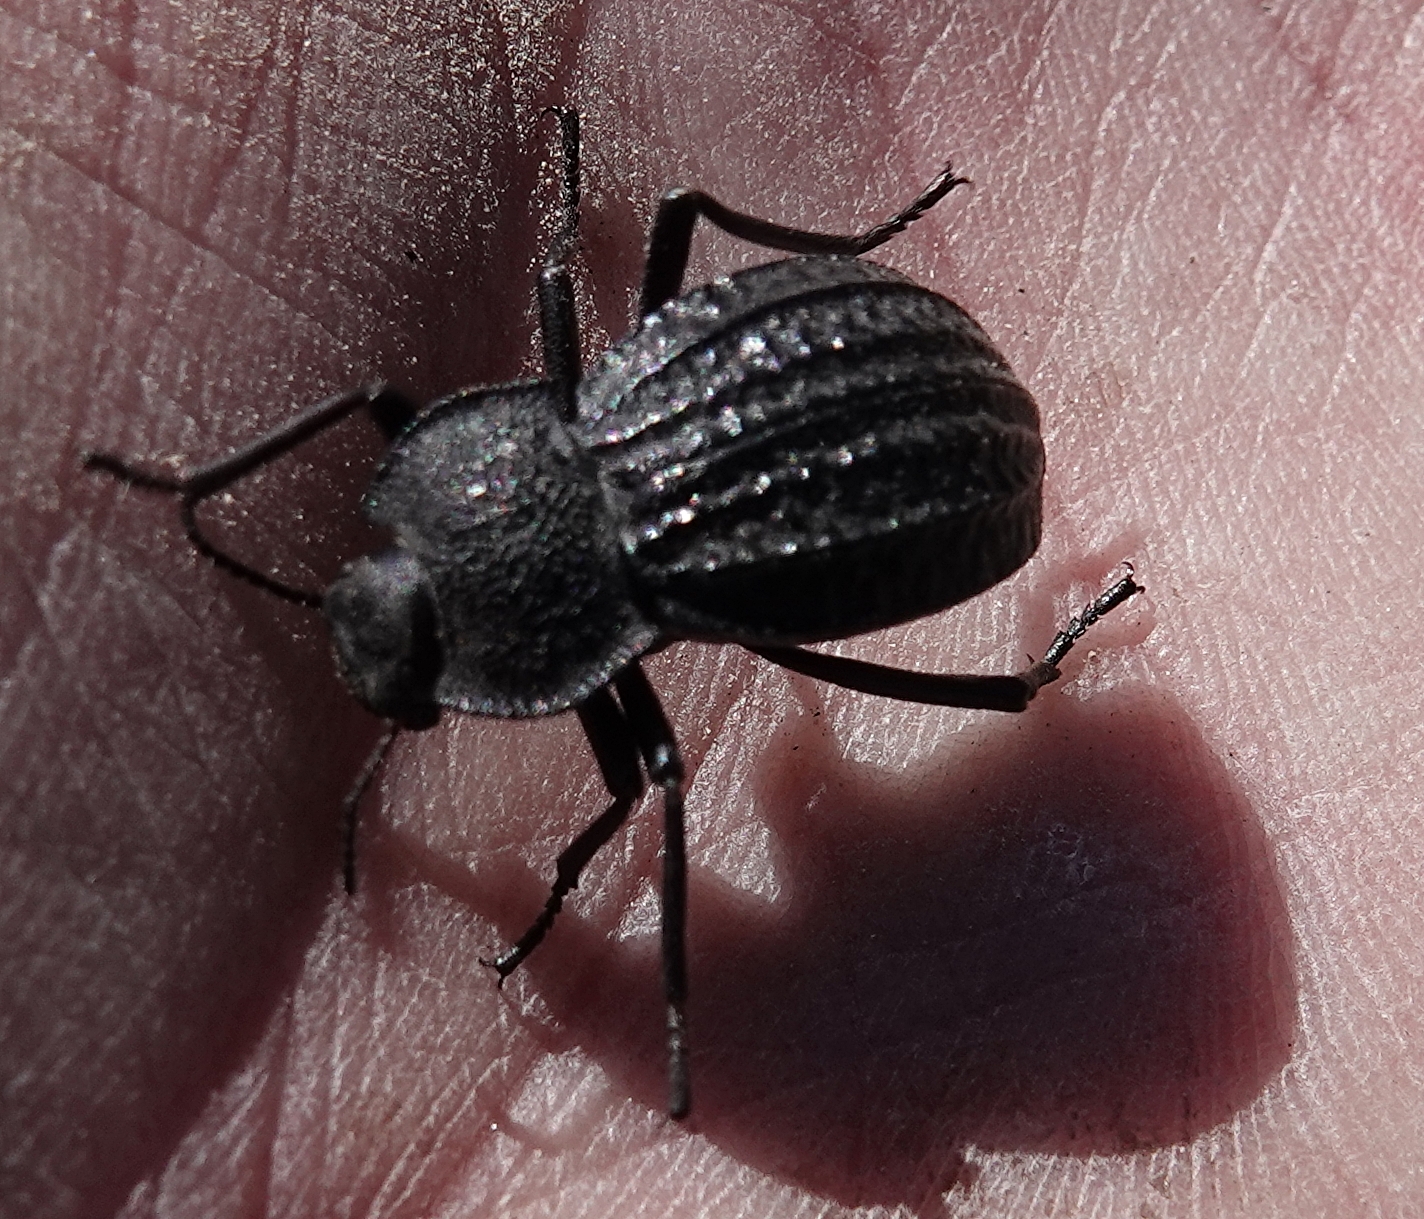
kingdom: Animalia
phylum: Arthropoda
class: Insecta
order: Coleoptera
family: Tenebrionidae
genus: Philolithus
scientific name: Philolithus sordidus
